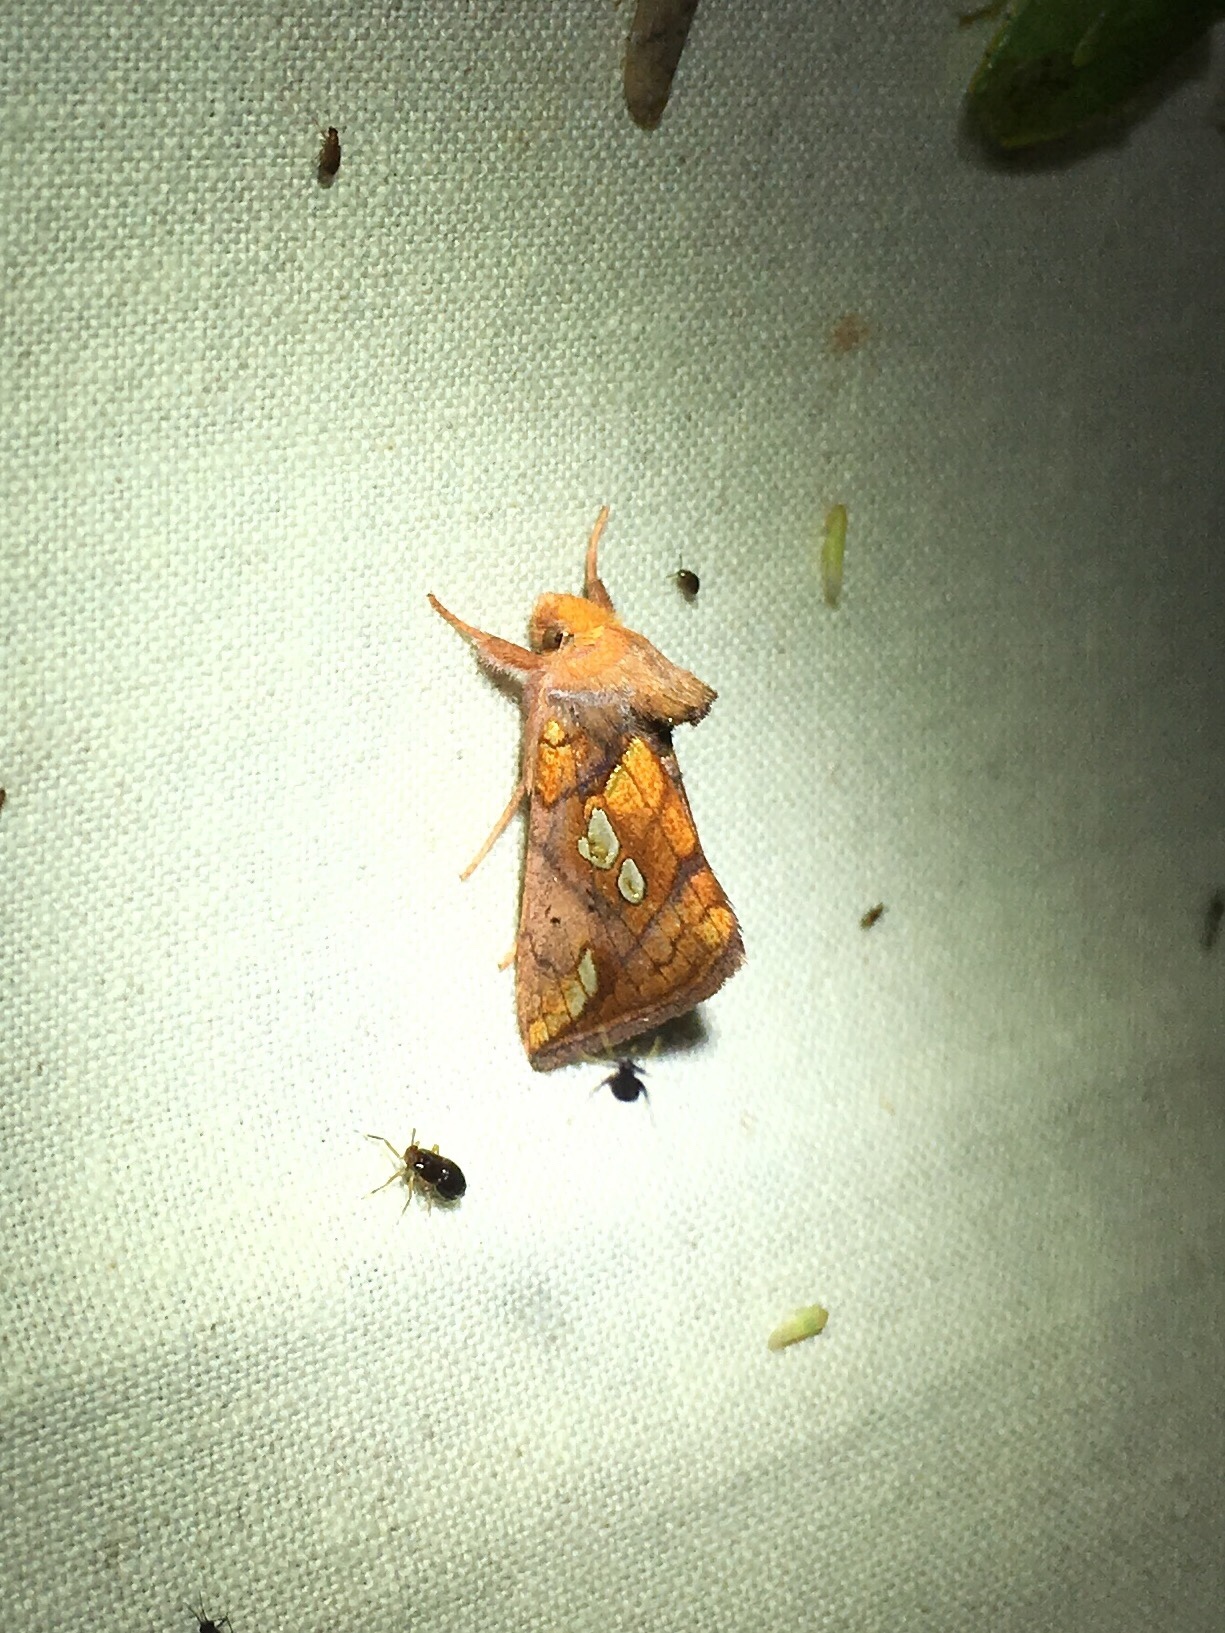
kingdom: Animalia
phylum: Arthropoda
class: Insecta
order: Lepidoptera
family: Noctuidae
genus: Plusia
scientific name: Plusia putnami
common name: Lempke's gold spot
